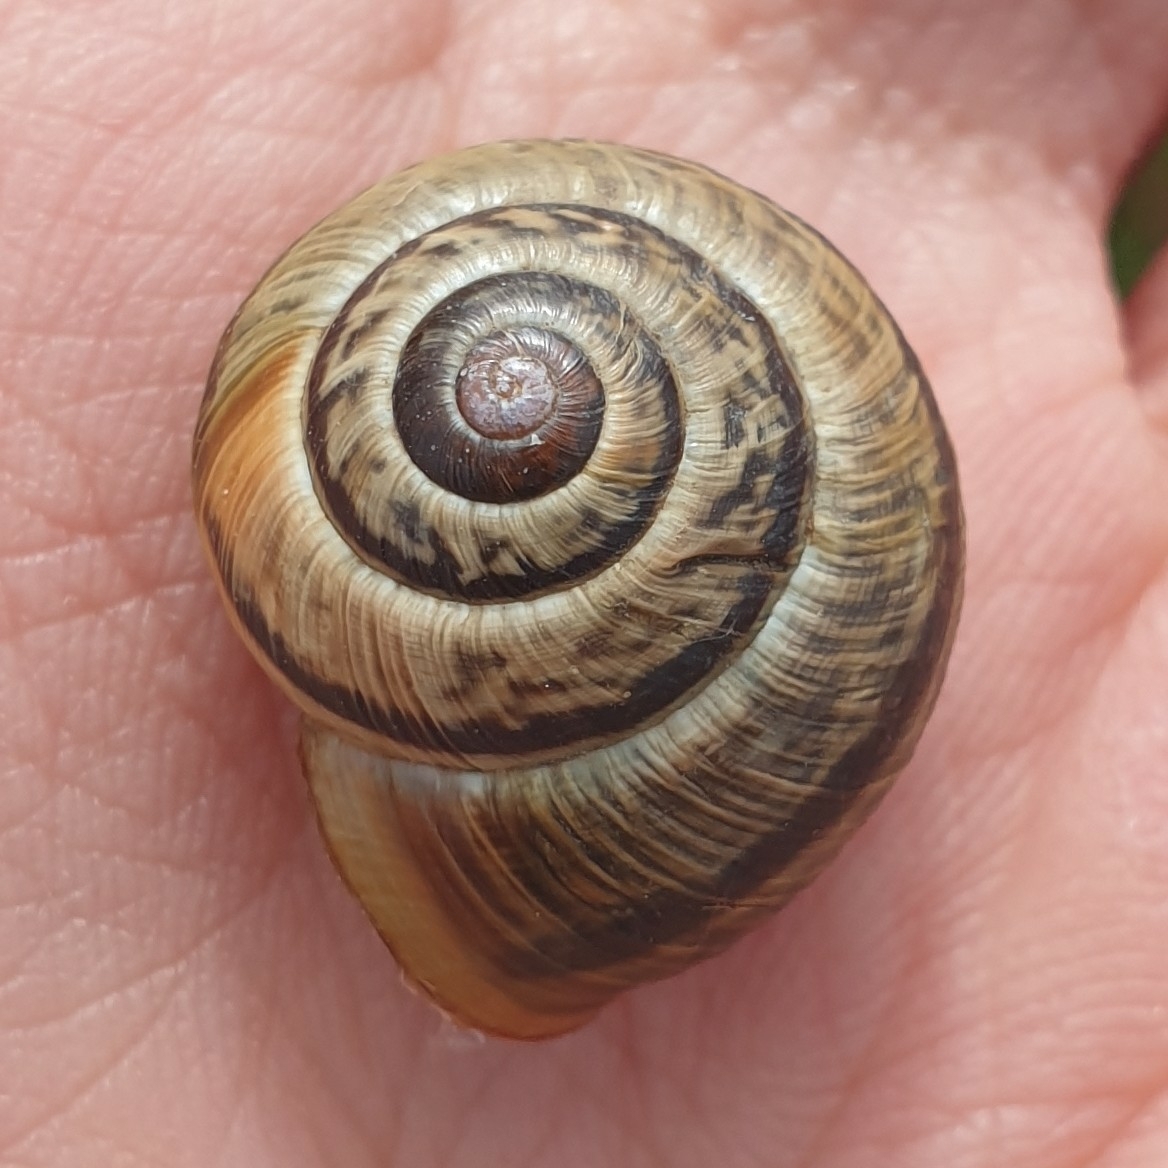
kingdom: Animalia
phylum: Mollusca
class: Gastropoda
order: Stylommatophora
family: Helicidae
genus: Arianta
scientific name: Arianta arbustorum
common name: Copse snail
